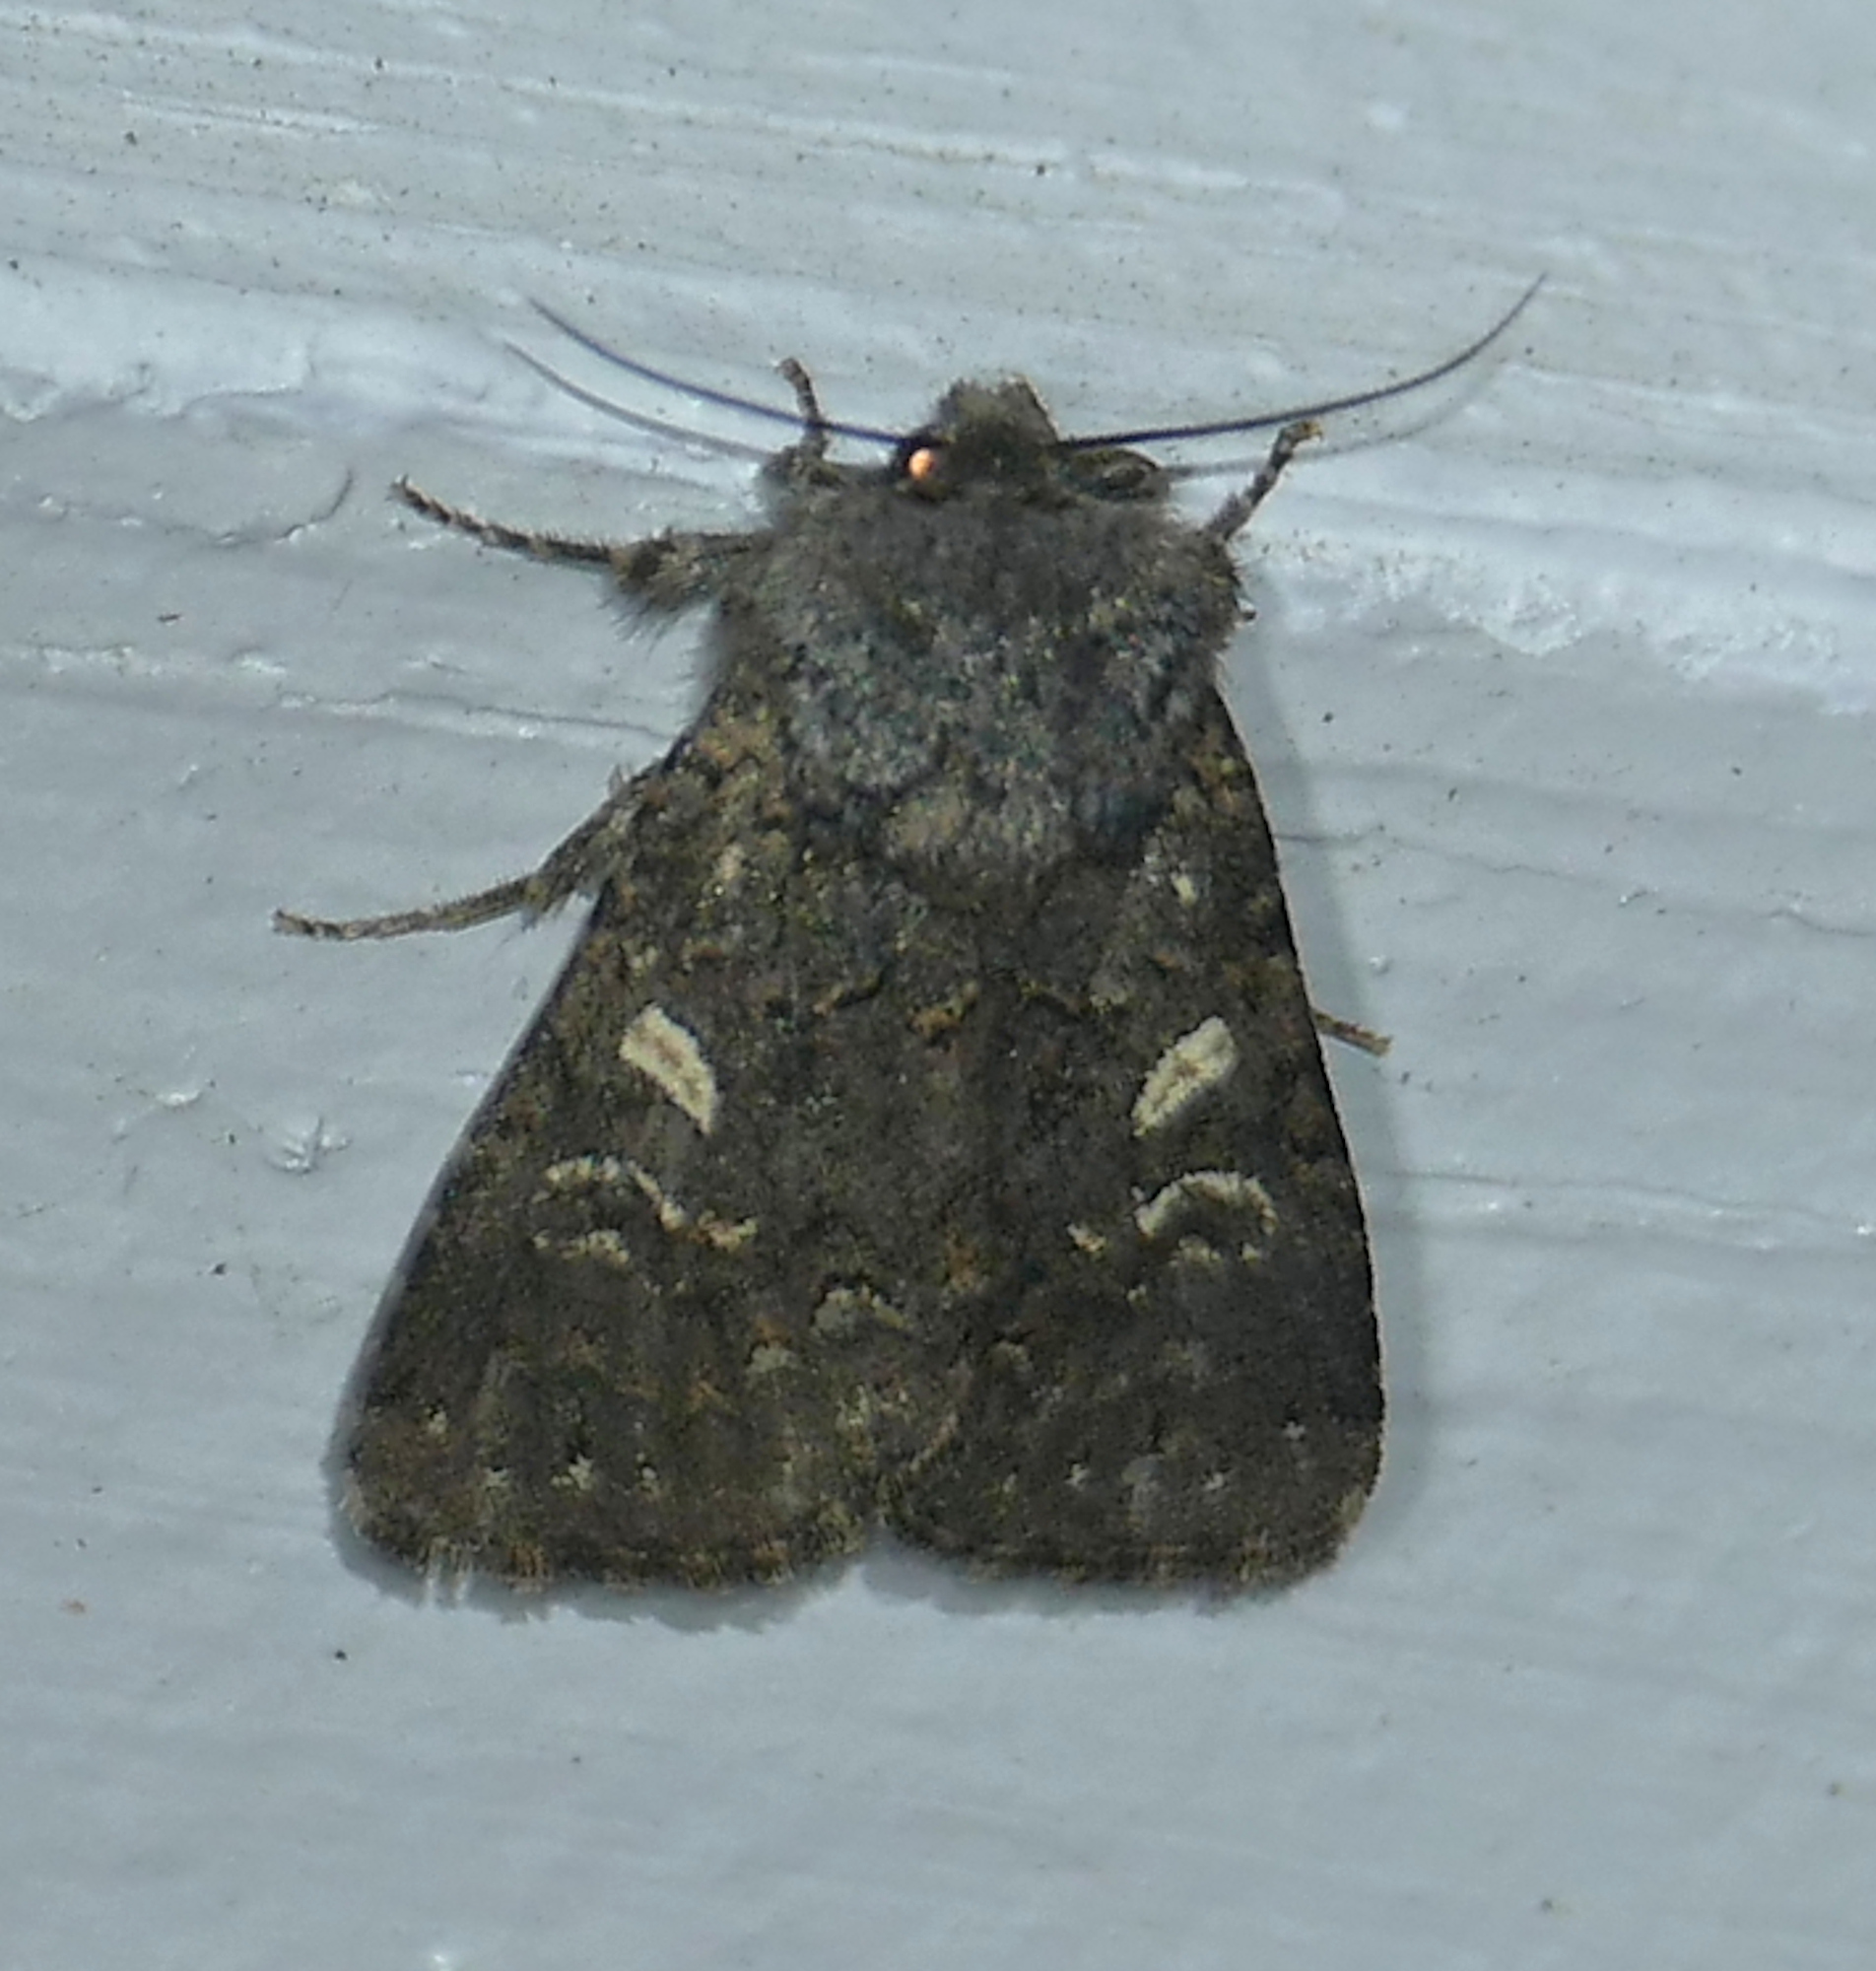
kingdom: Animalia
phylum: Arthropoda
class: Insecta
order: Lepidoptera
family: Noctuidae
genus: Spodoptera
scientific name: Spodoptera hipparis
